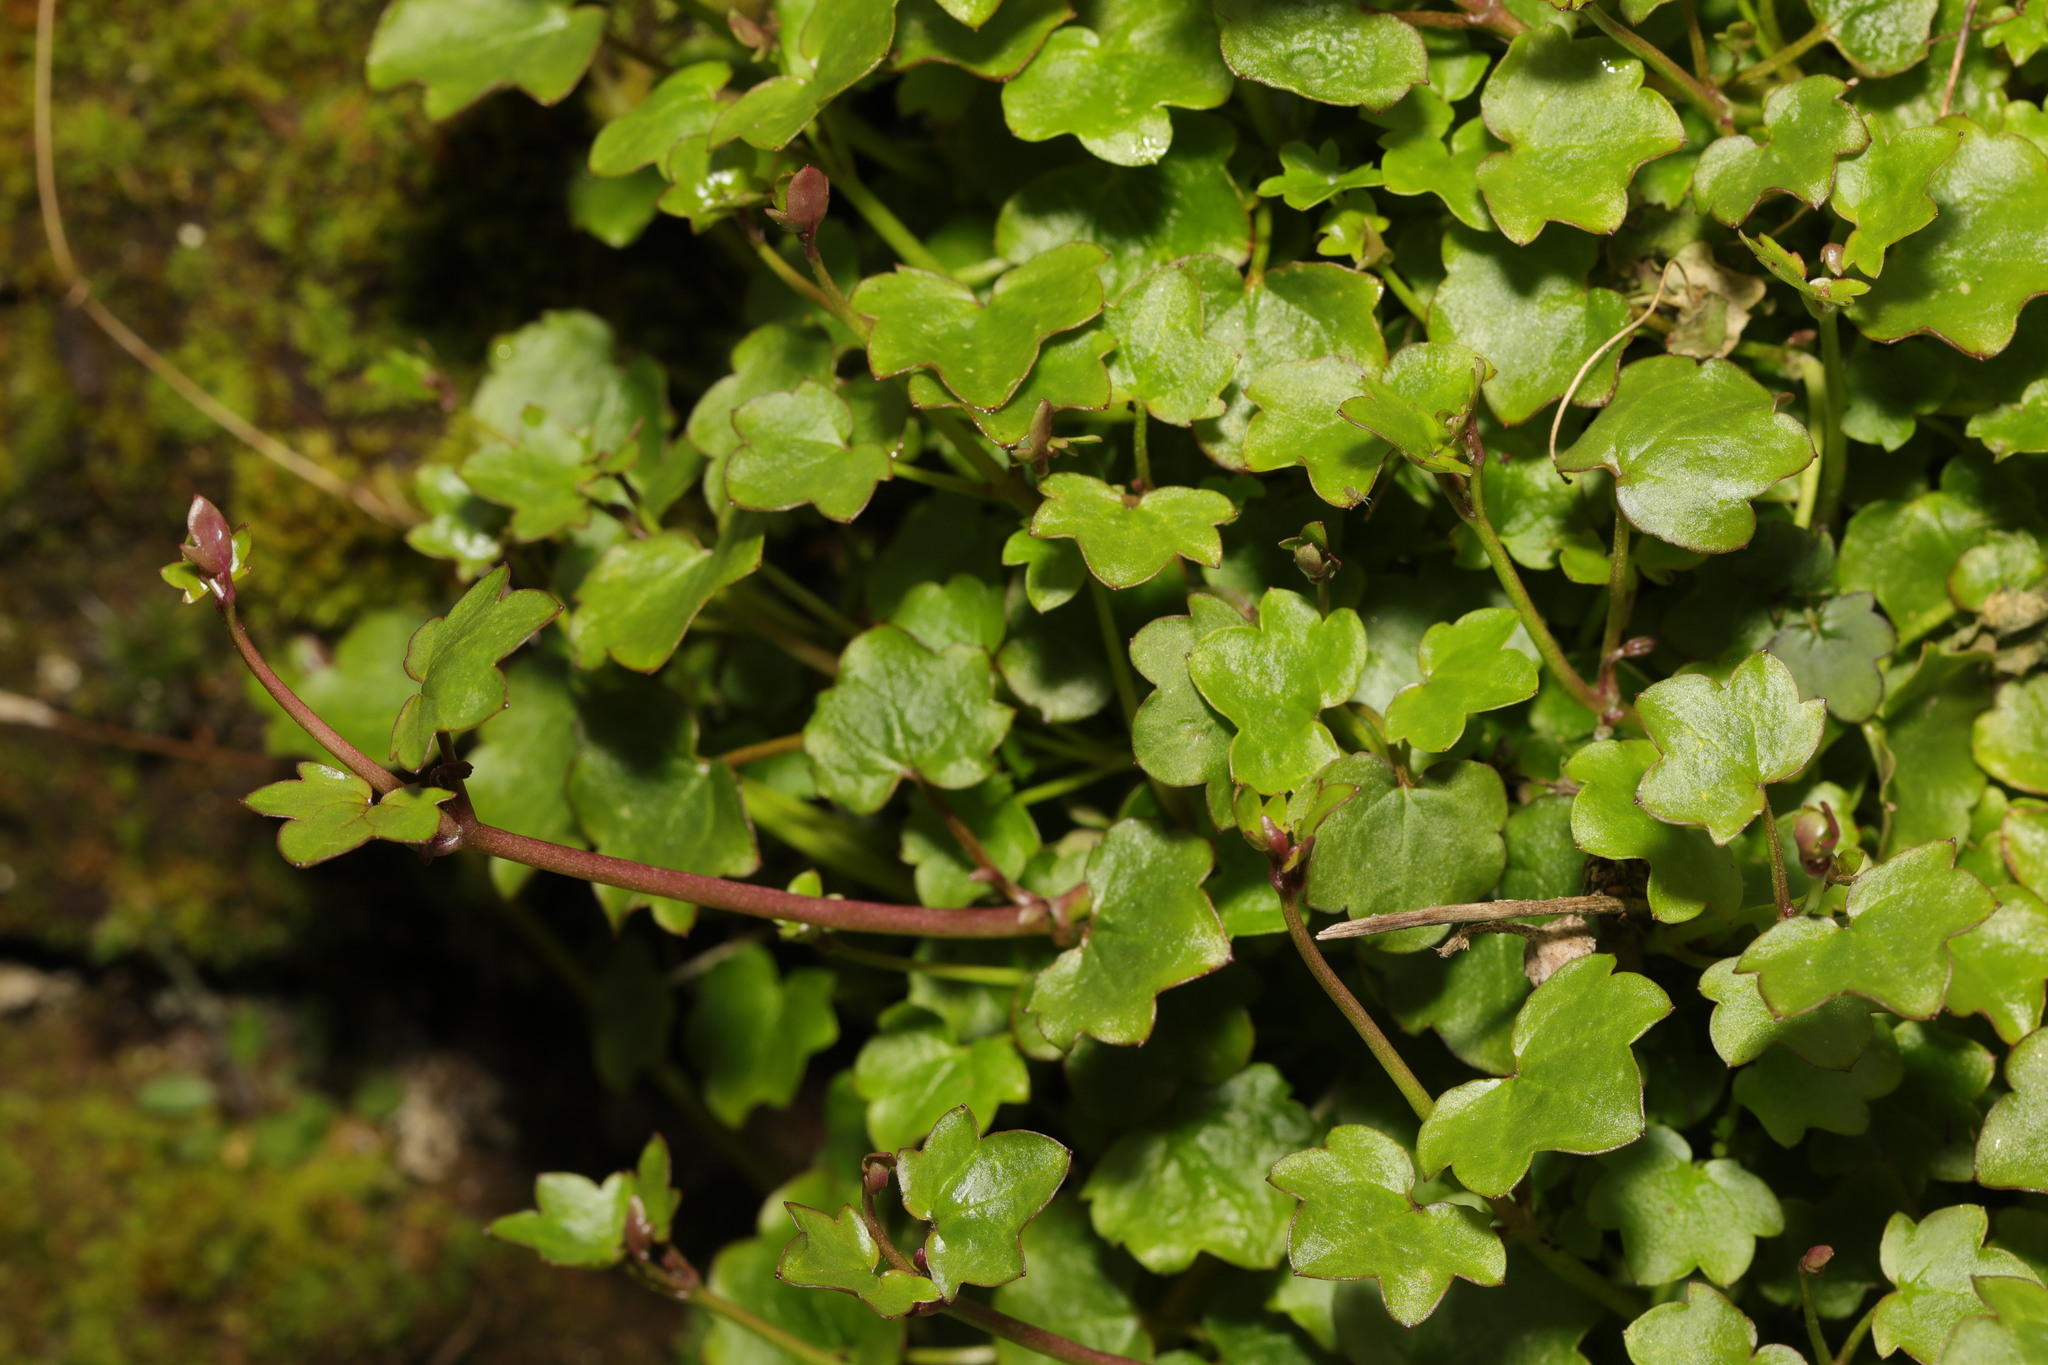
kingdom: Plantae
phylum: Tracheophyta
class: Magnoliopsida
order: Lamiales
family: Plantaginaceae
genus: Cymbalaria
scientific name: Cymbalaria muralis
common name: Ivy-leaved toadflax
